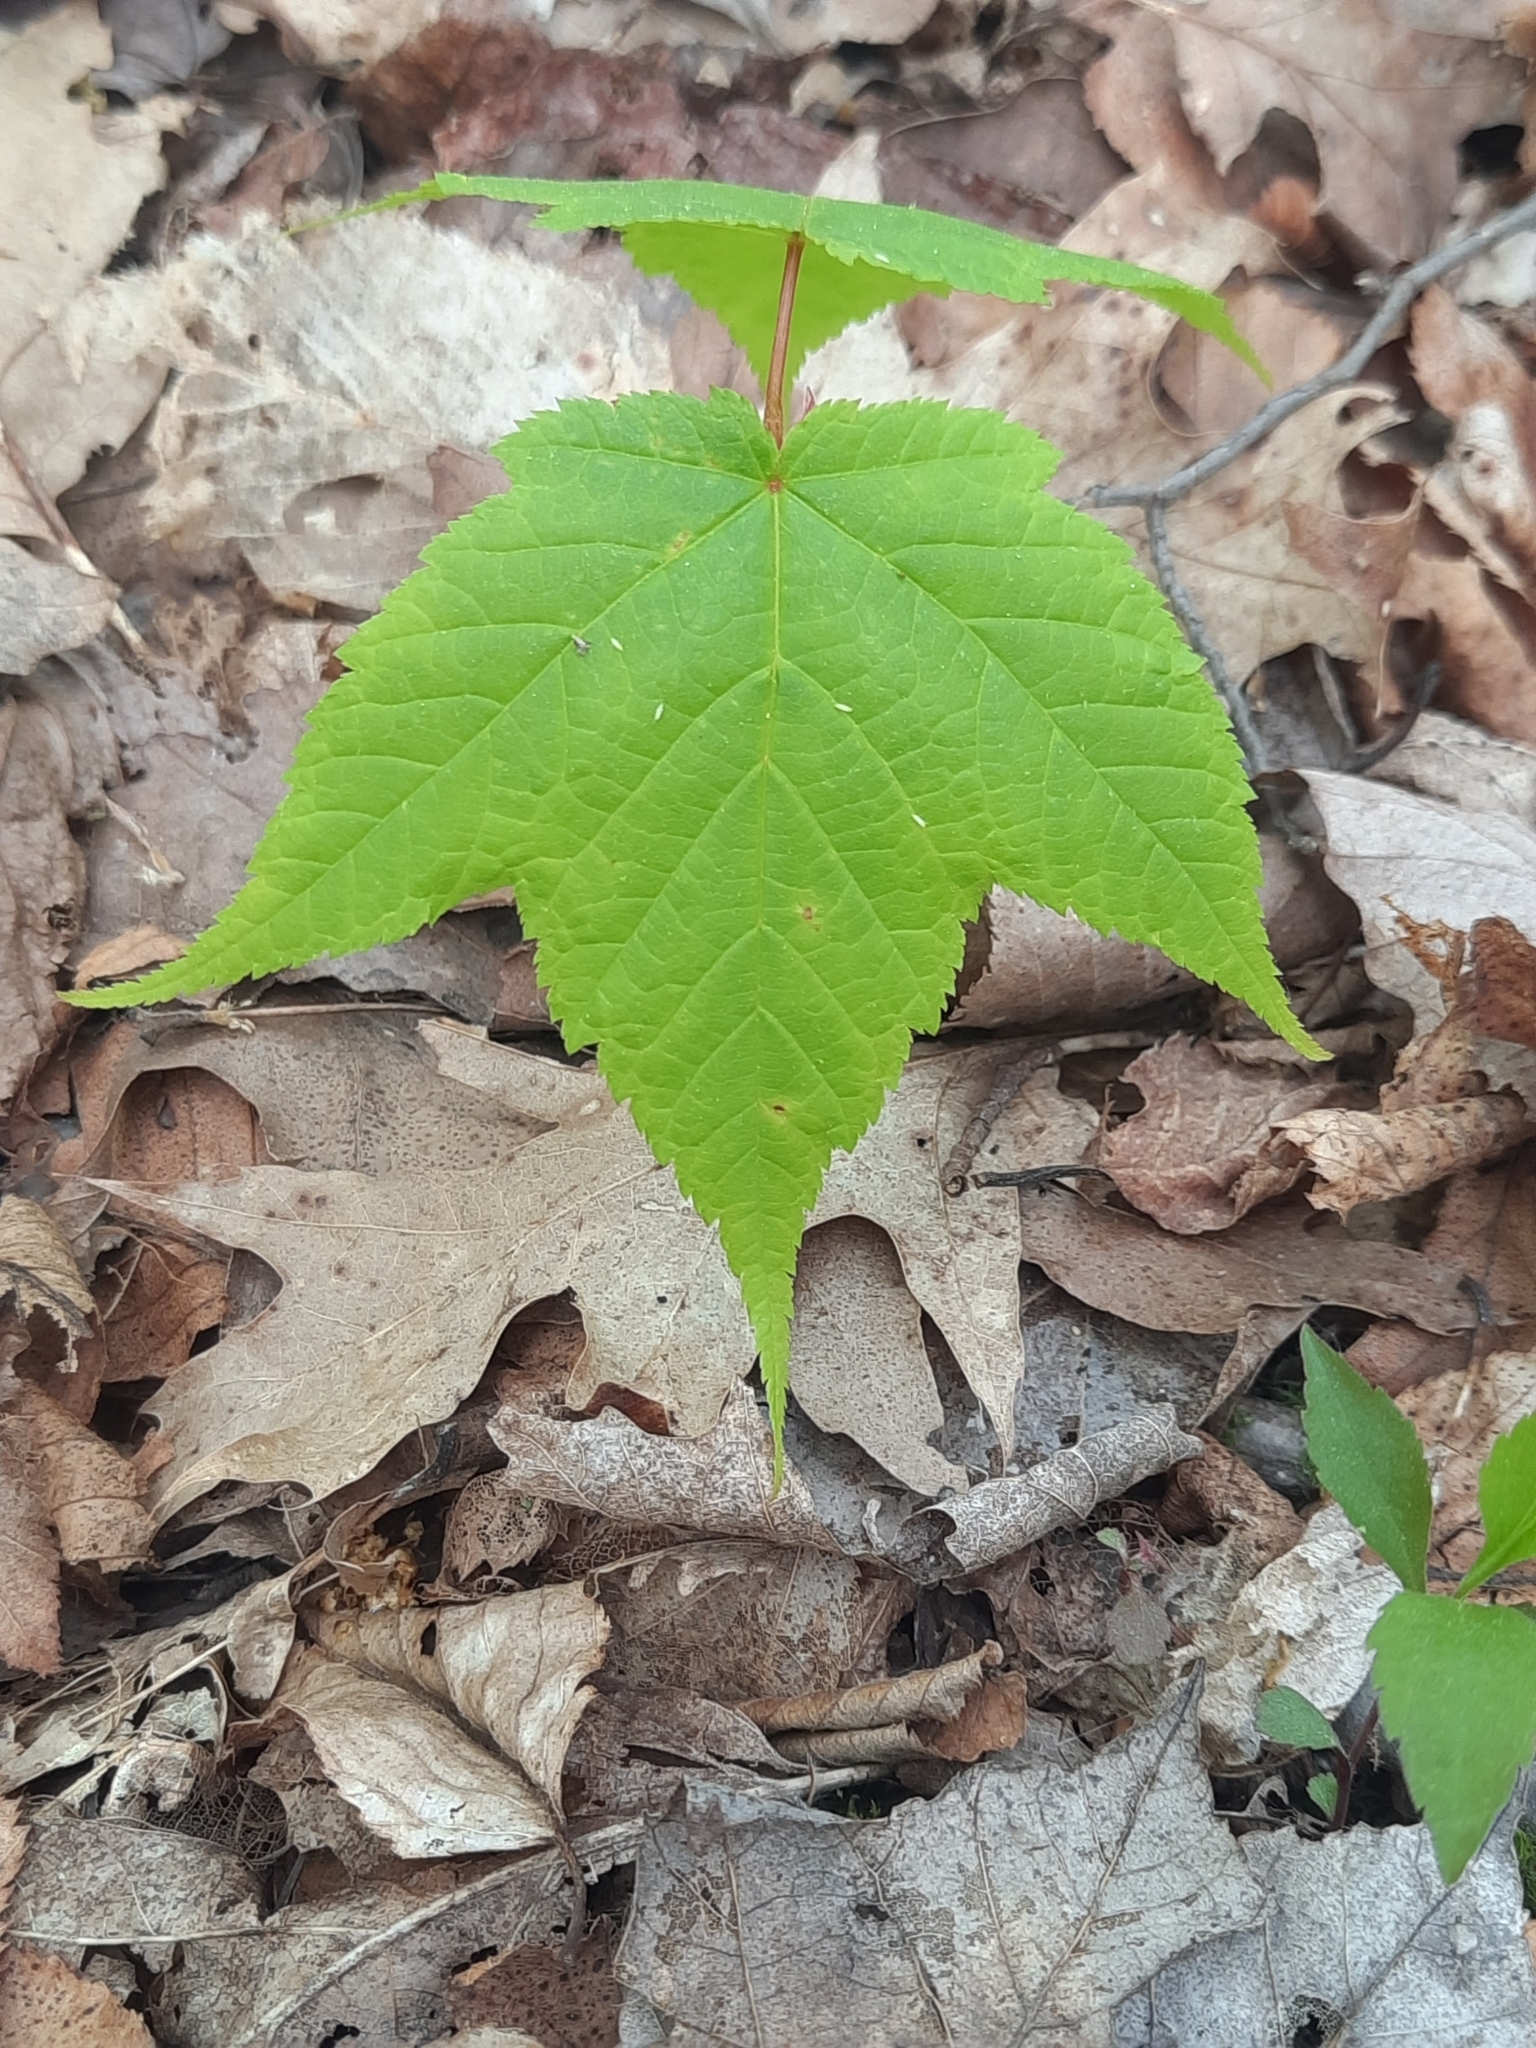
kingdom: Plantae
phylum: Tracheophyta
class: Magnoliopsida
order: Sapindales
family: Sapindaceae
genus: Acer
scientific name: Acer pensylvanicum
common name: Moosewood
